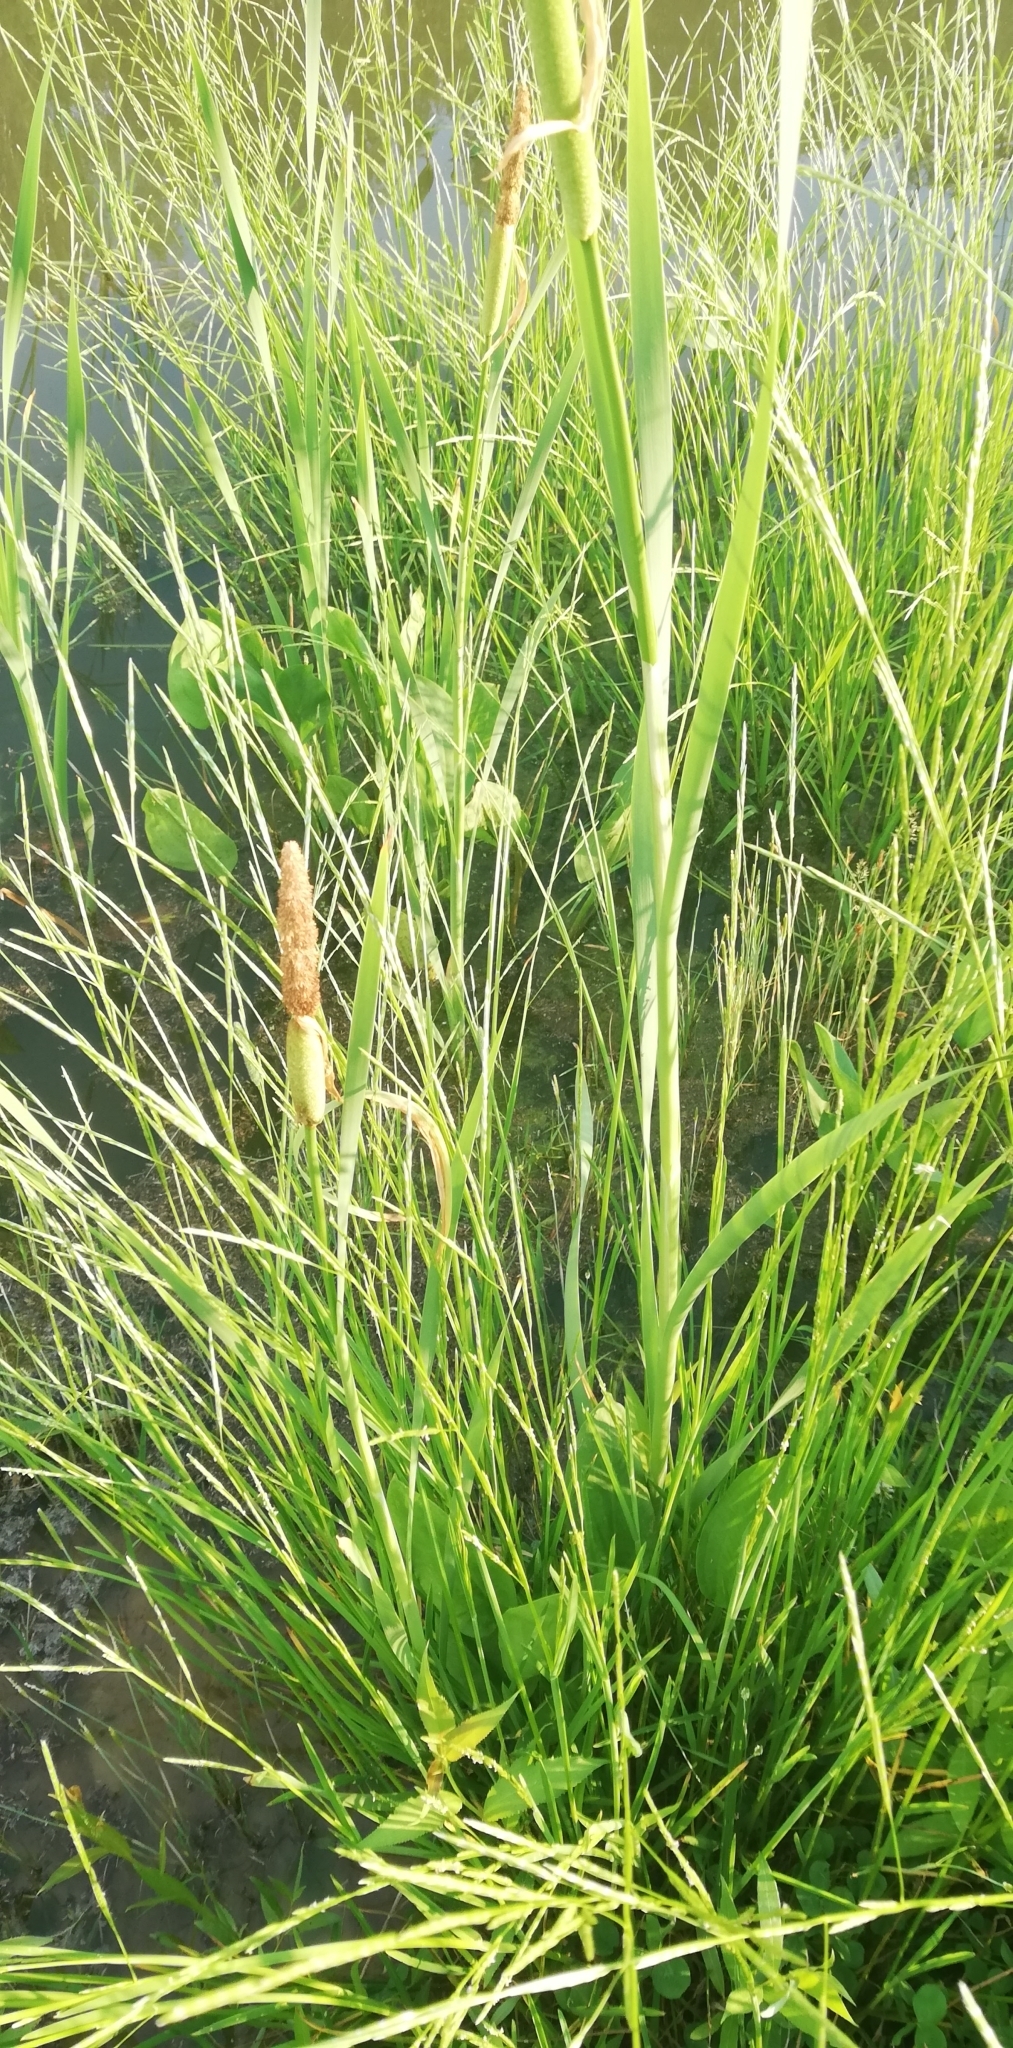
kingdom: Plantae
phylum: Tracheophyta
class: Liliopsida
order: Poales
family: Typhaceae
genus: Typha
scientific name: Typha latifolia
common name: Broadleaf cattail
